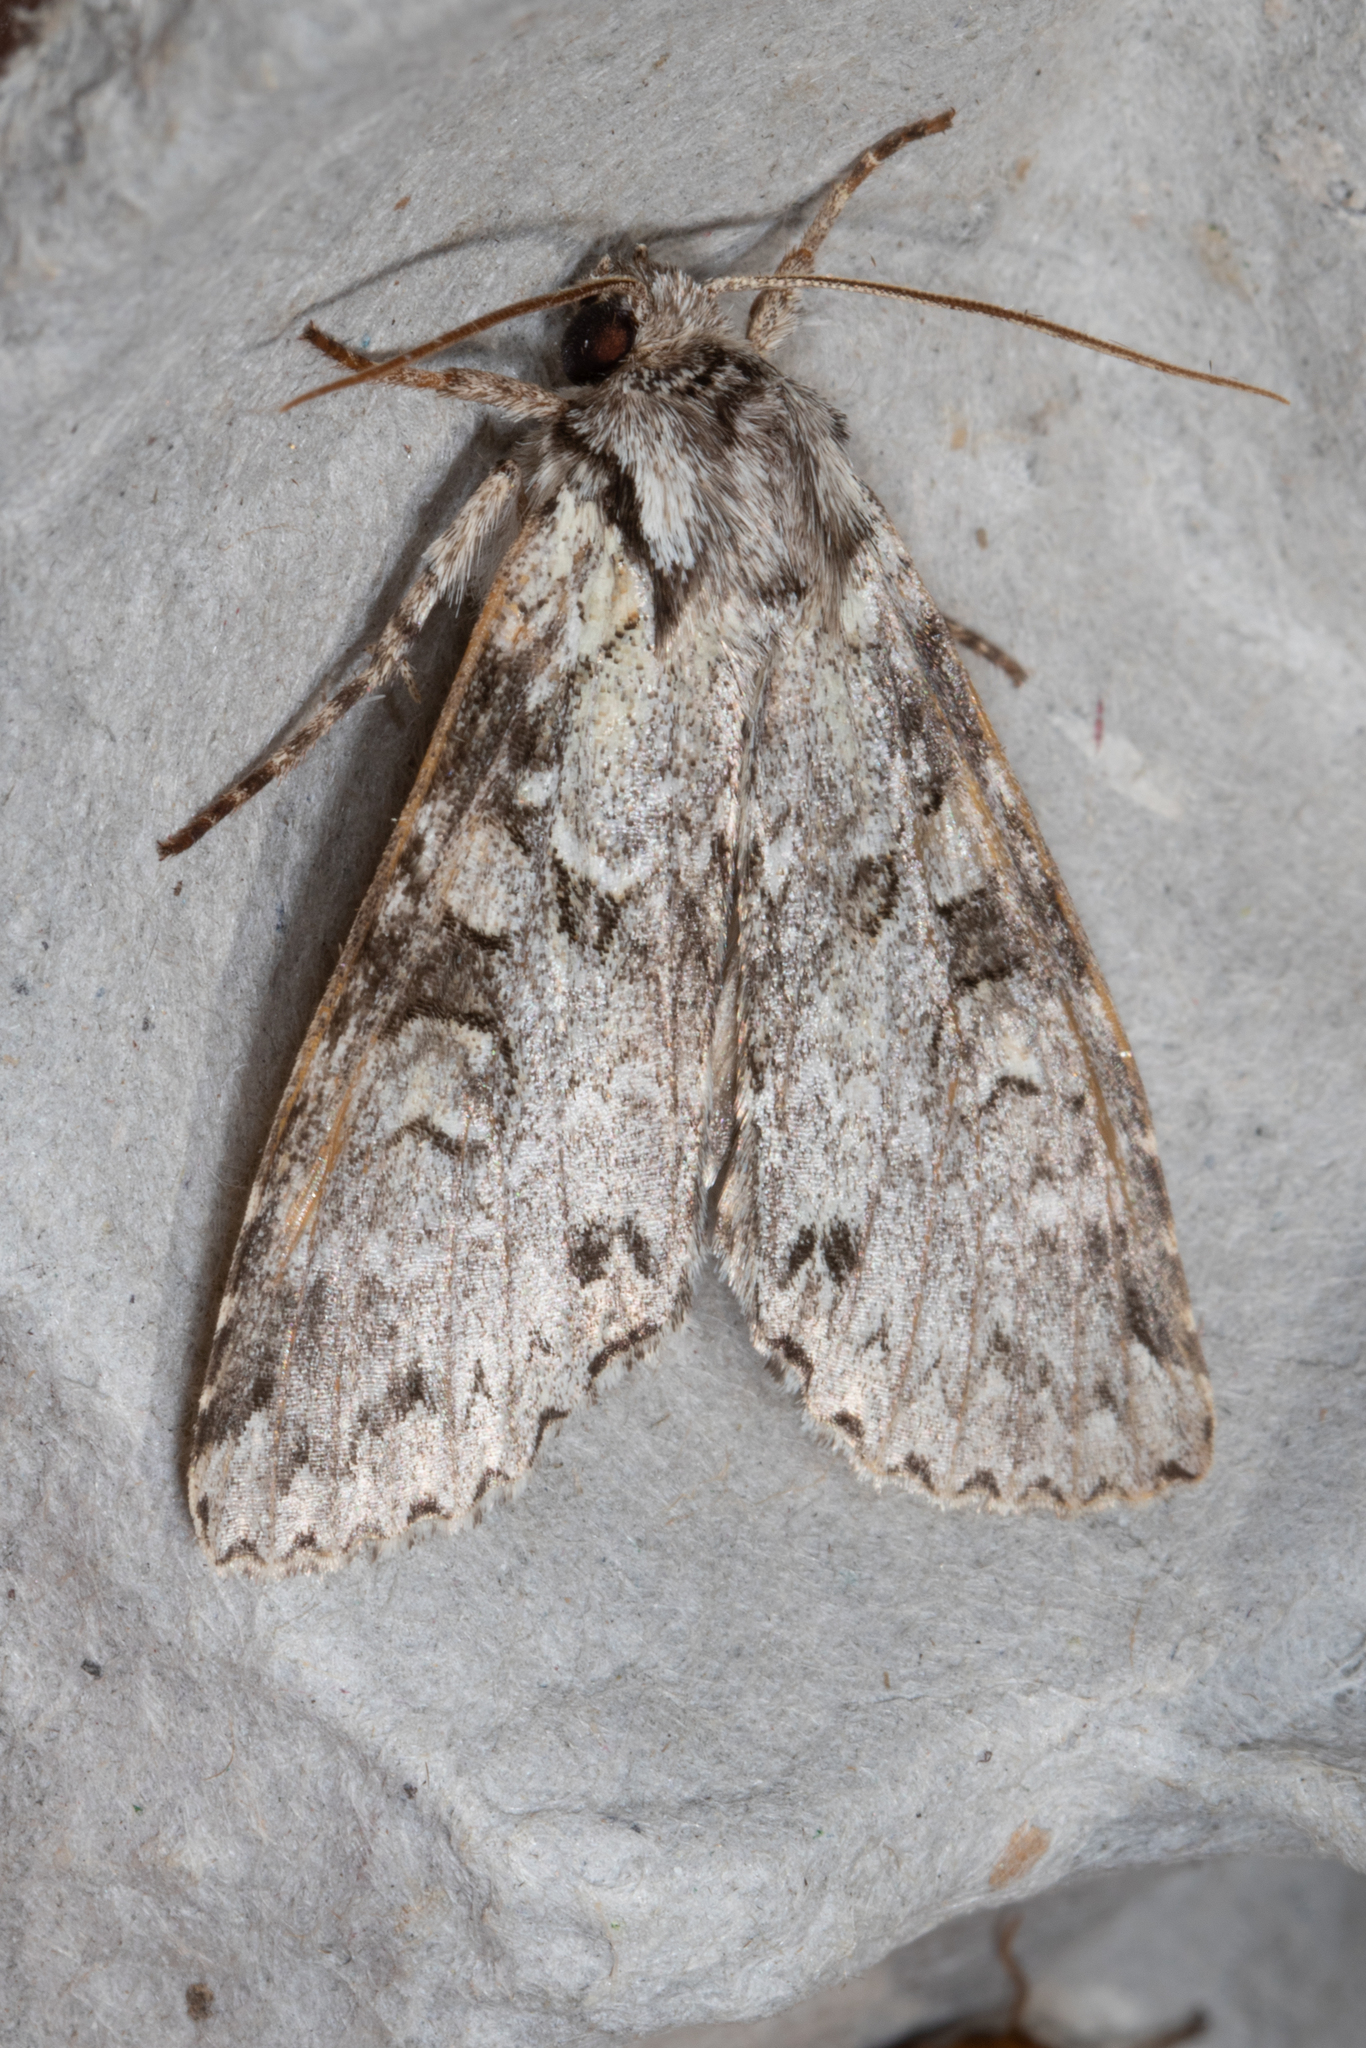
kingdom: Animalia
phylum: Arthropoda
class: Insecta
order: Lepidoptera
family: Noctuidae
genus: Polia
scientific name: Polia nimbosa
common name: Stormy arches
